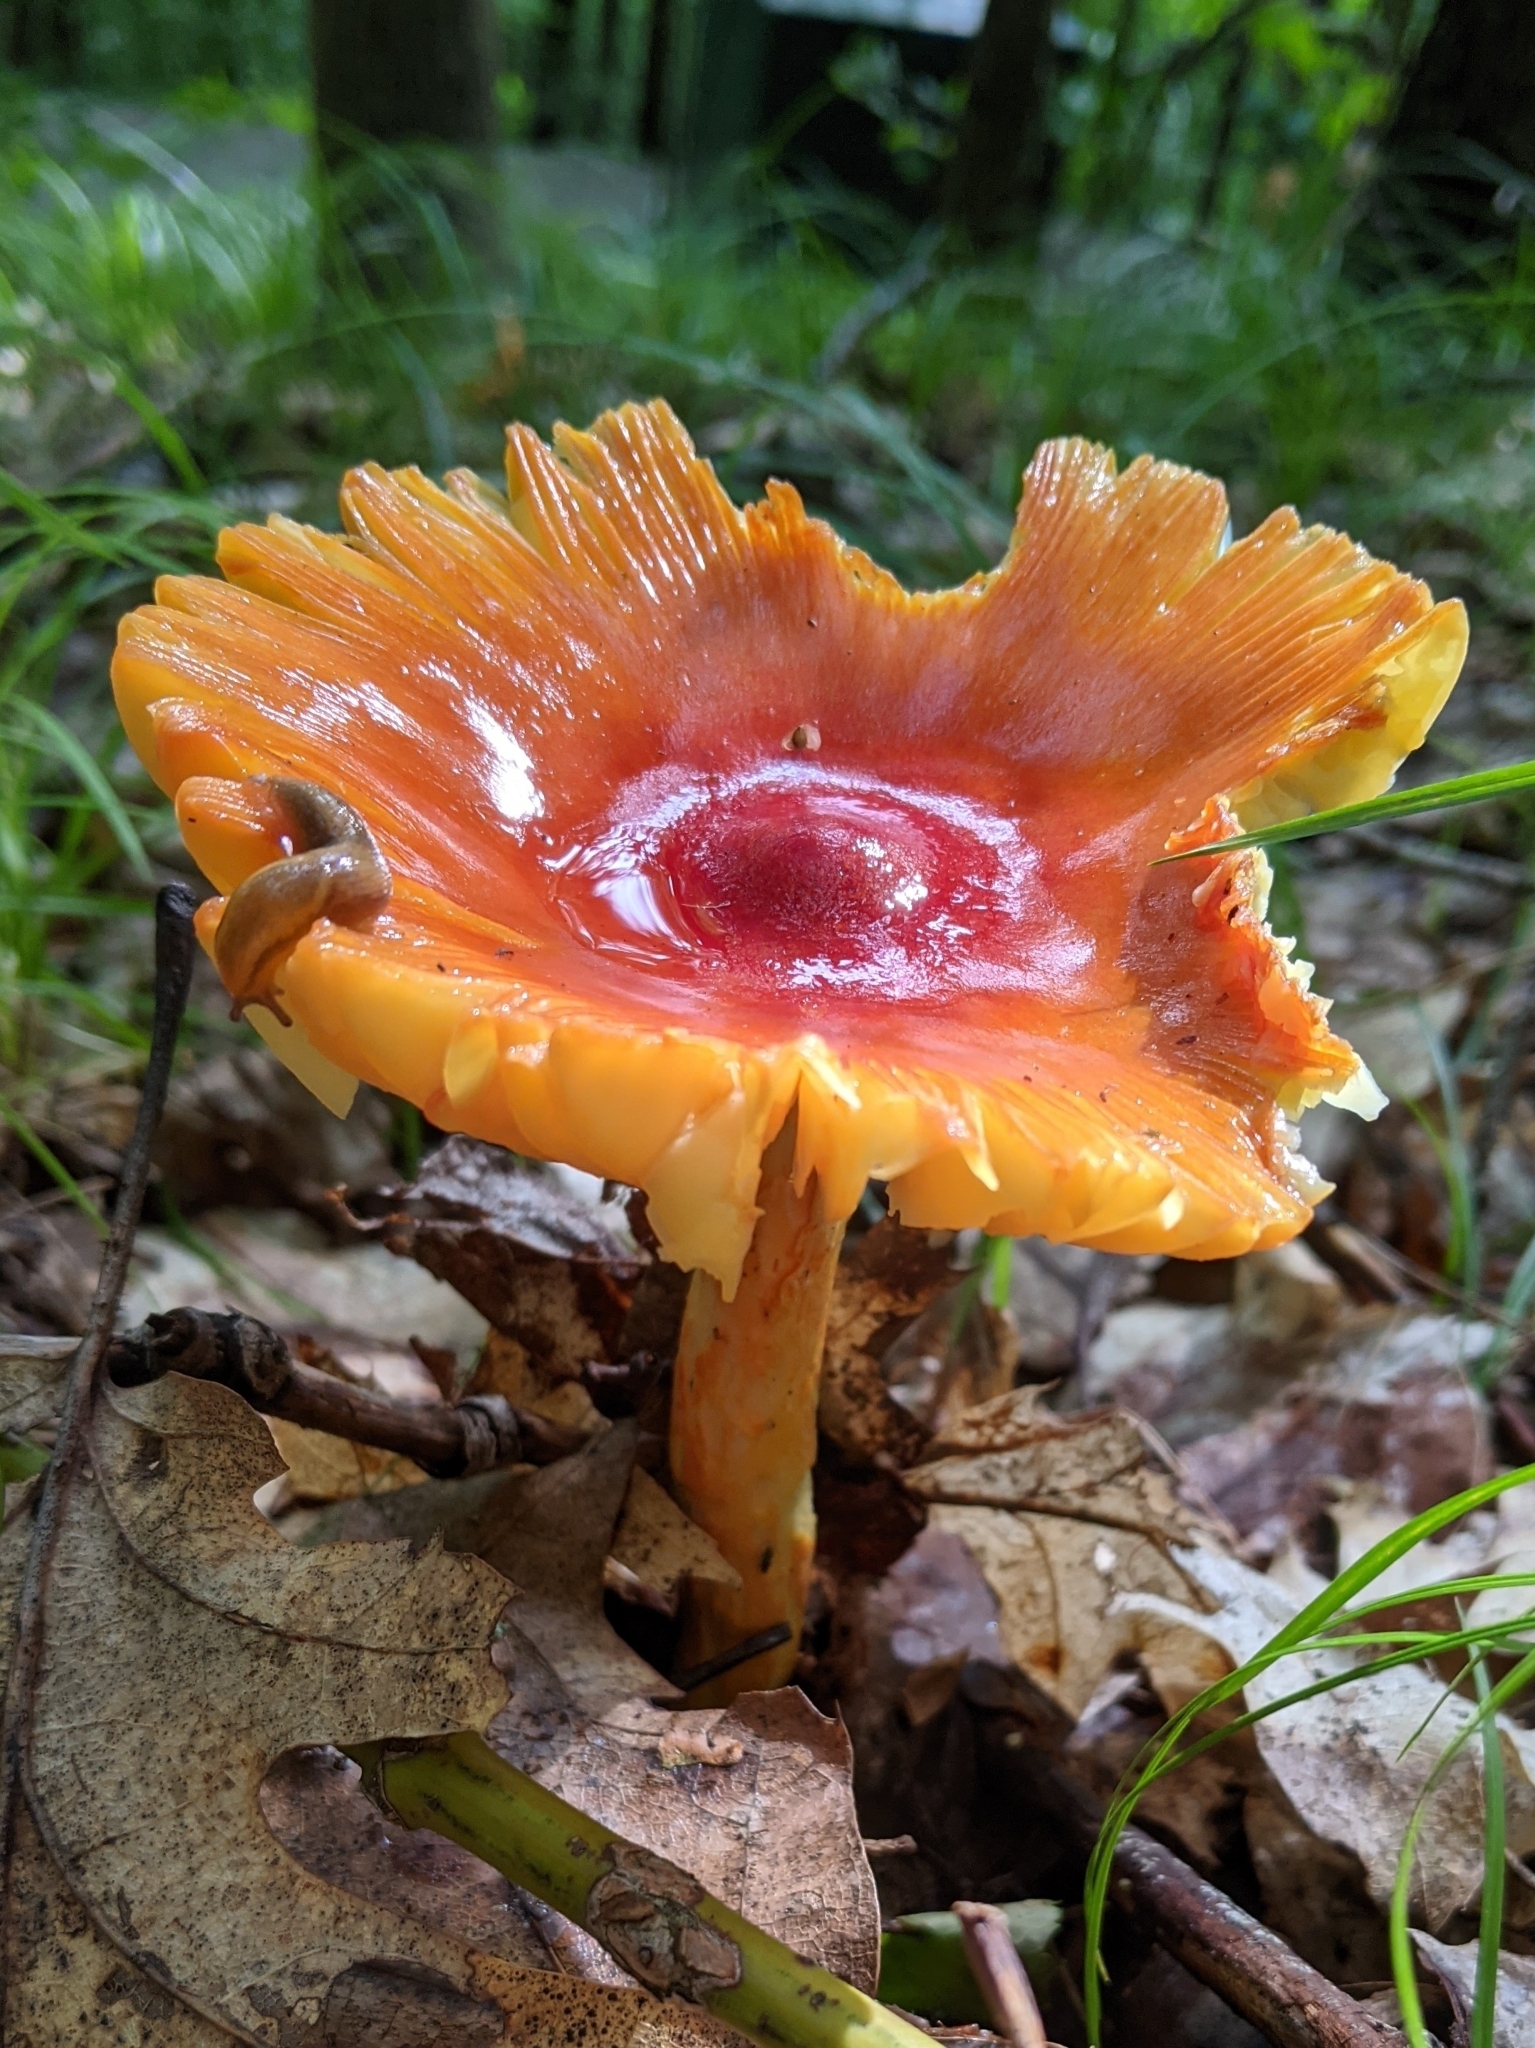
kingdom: Fungi
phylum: Basidiomycota
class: Agaricomycetes
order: Agaricales
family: Amanitaceae
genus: Amanita
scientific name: Amanita jacksonii
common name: Jackson's slender caesar
